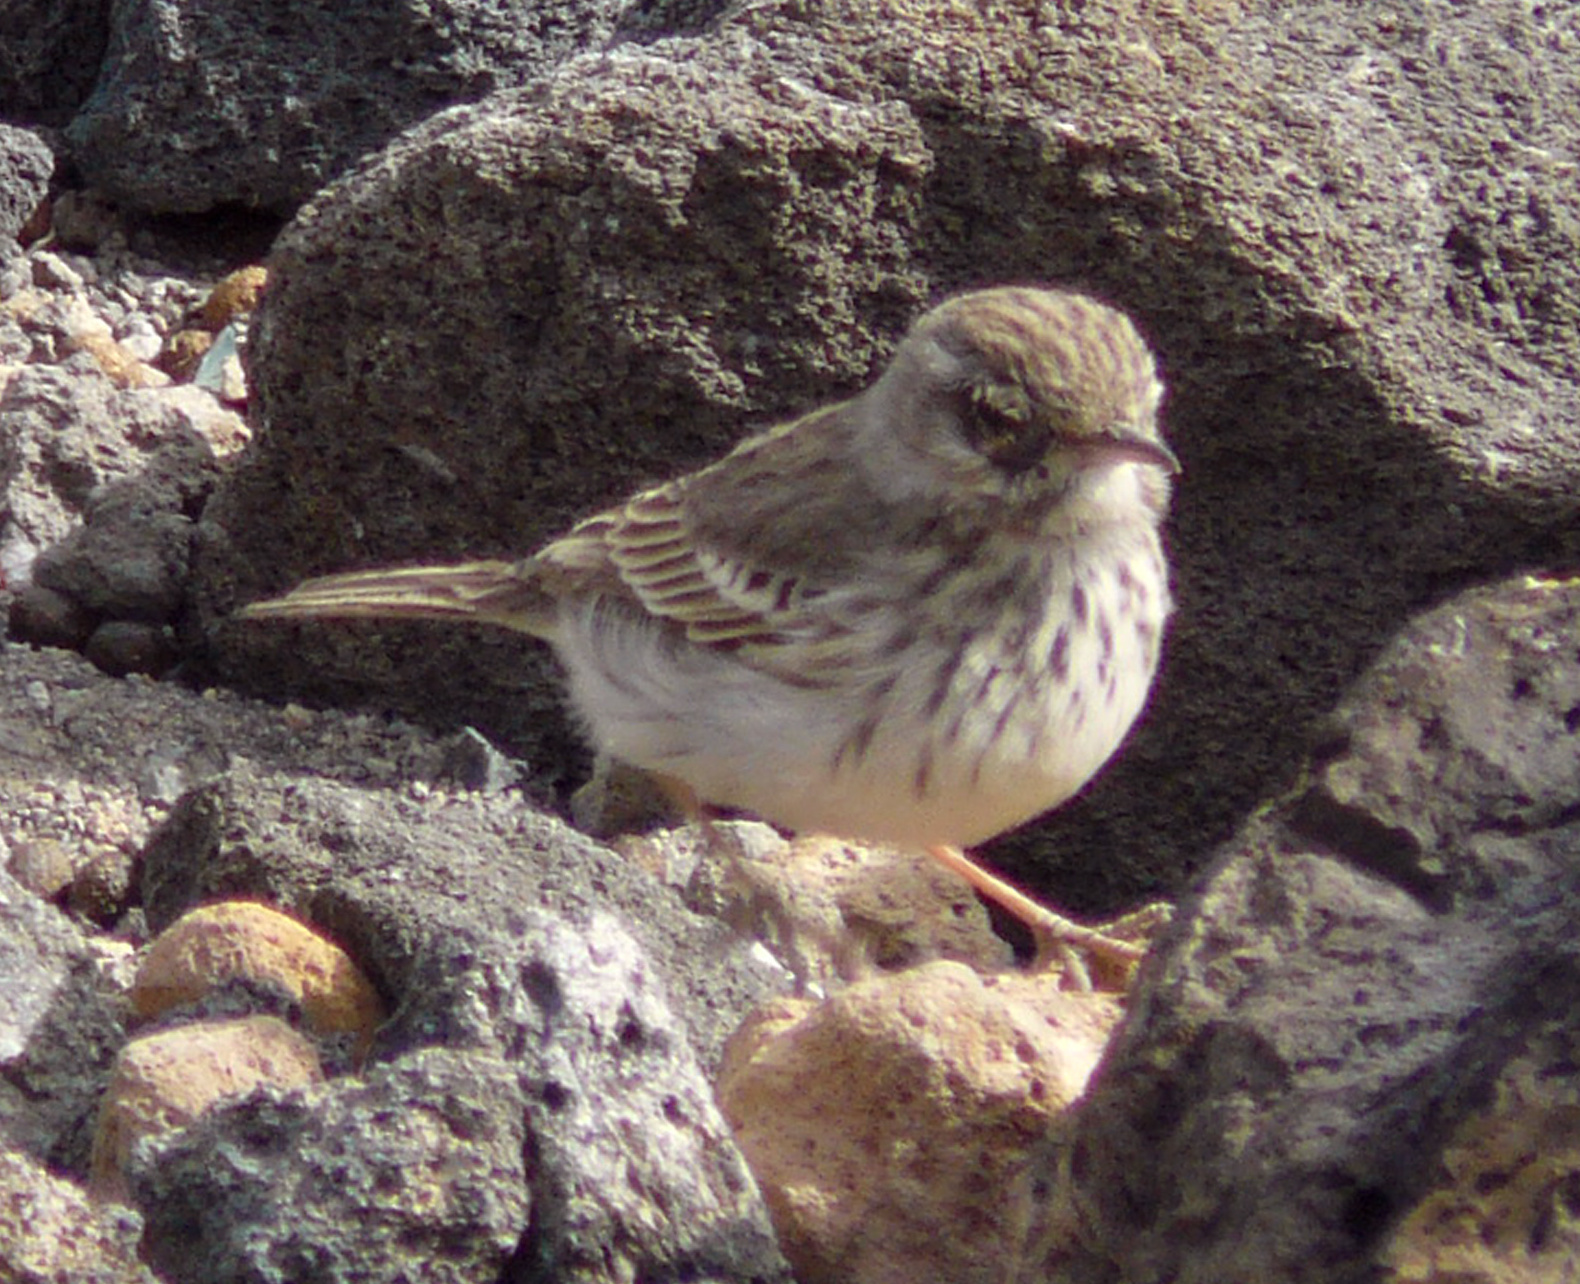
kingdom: Animalia
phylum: Chordata
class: Aves
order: Passeriformes
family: Motacillidae
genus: Anthus
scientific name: Anthus berthelotii
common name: Berthelot's pipit
